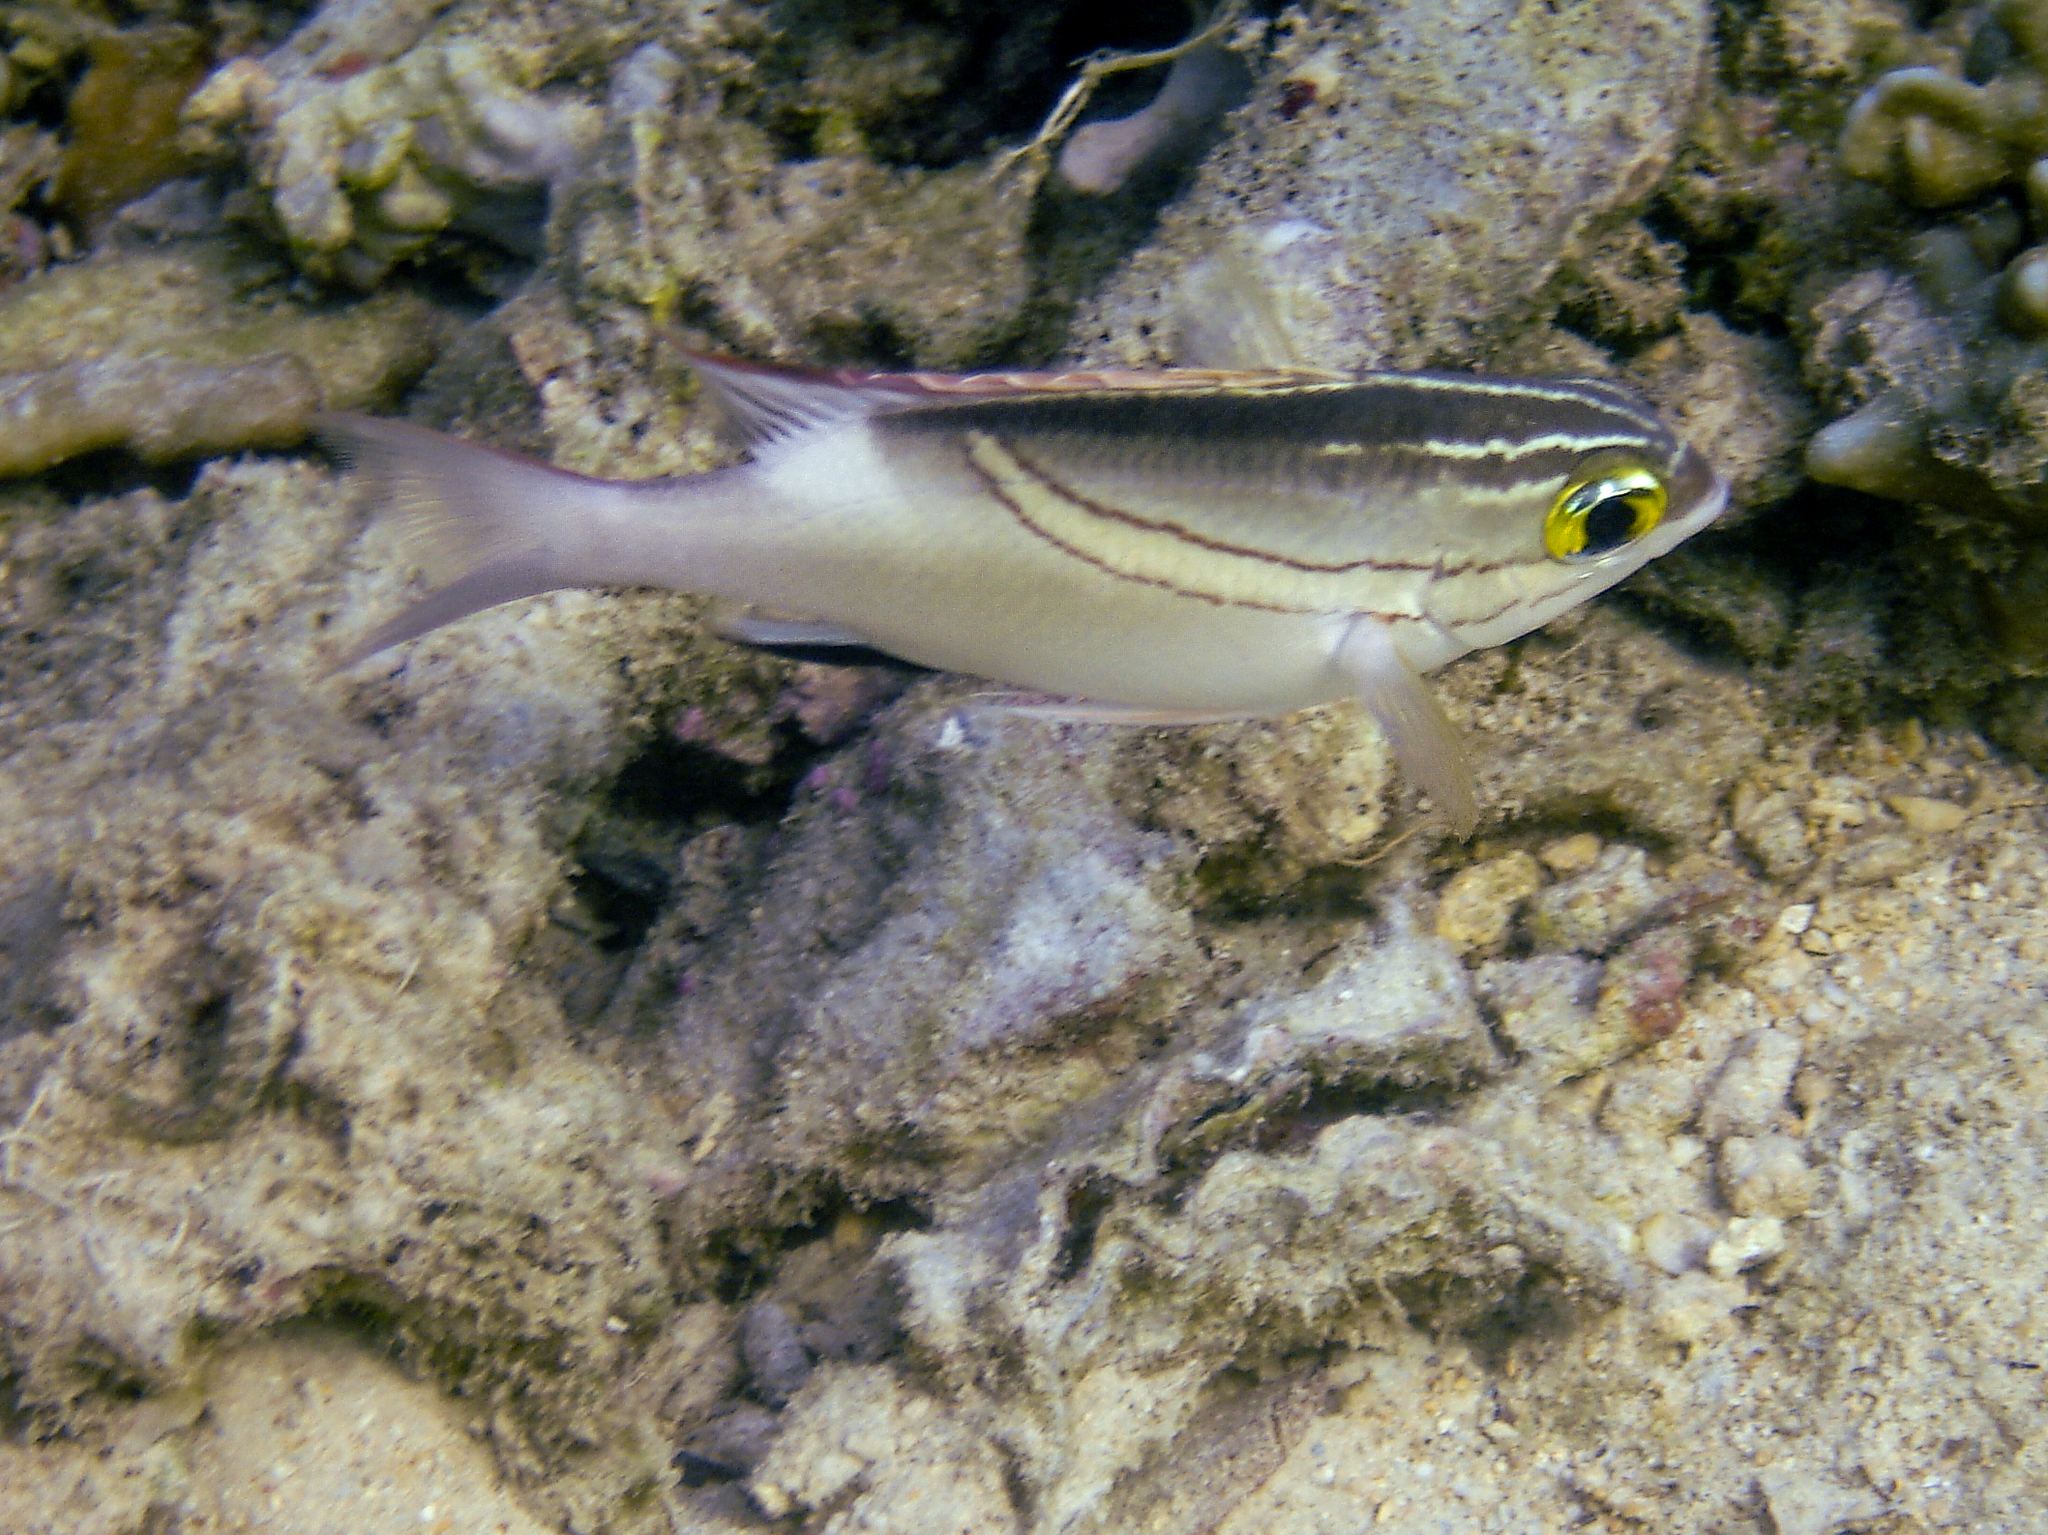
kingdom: Animalia
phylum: Chordata
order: Perciformes
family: Nemipteridae
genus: Scolopsis
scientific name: Scolopsis bilineata
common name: Two-lined monocle bream
